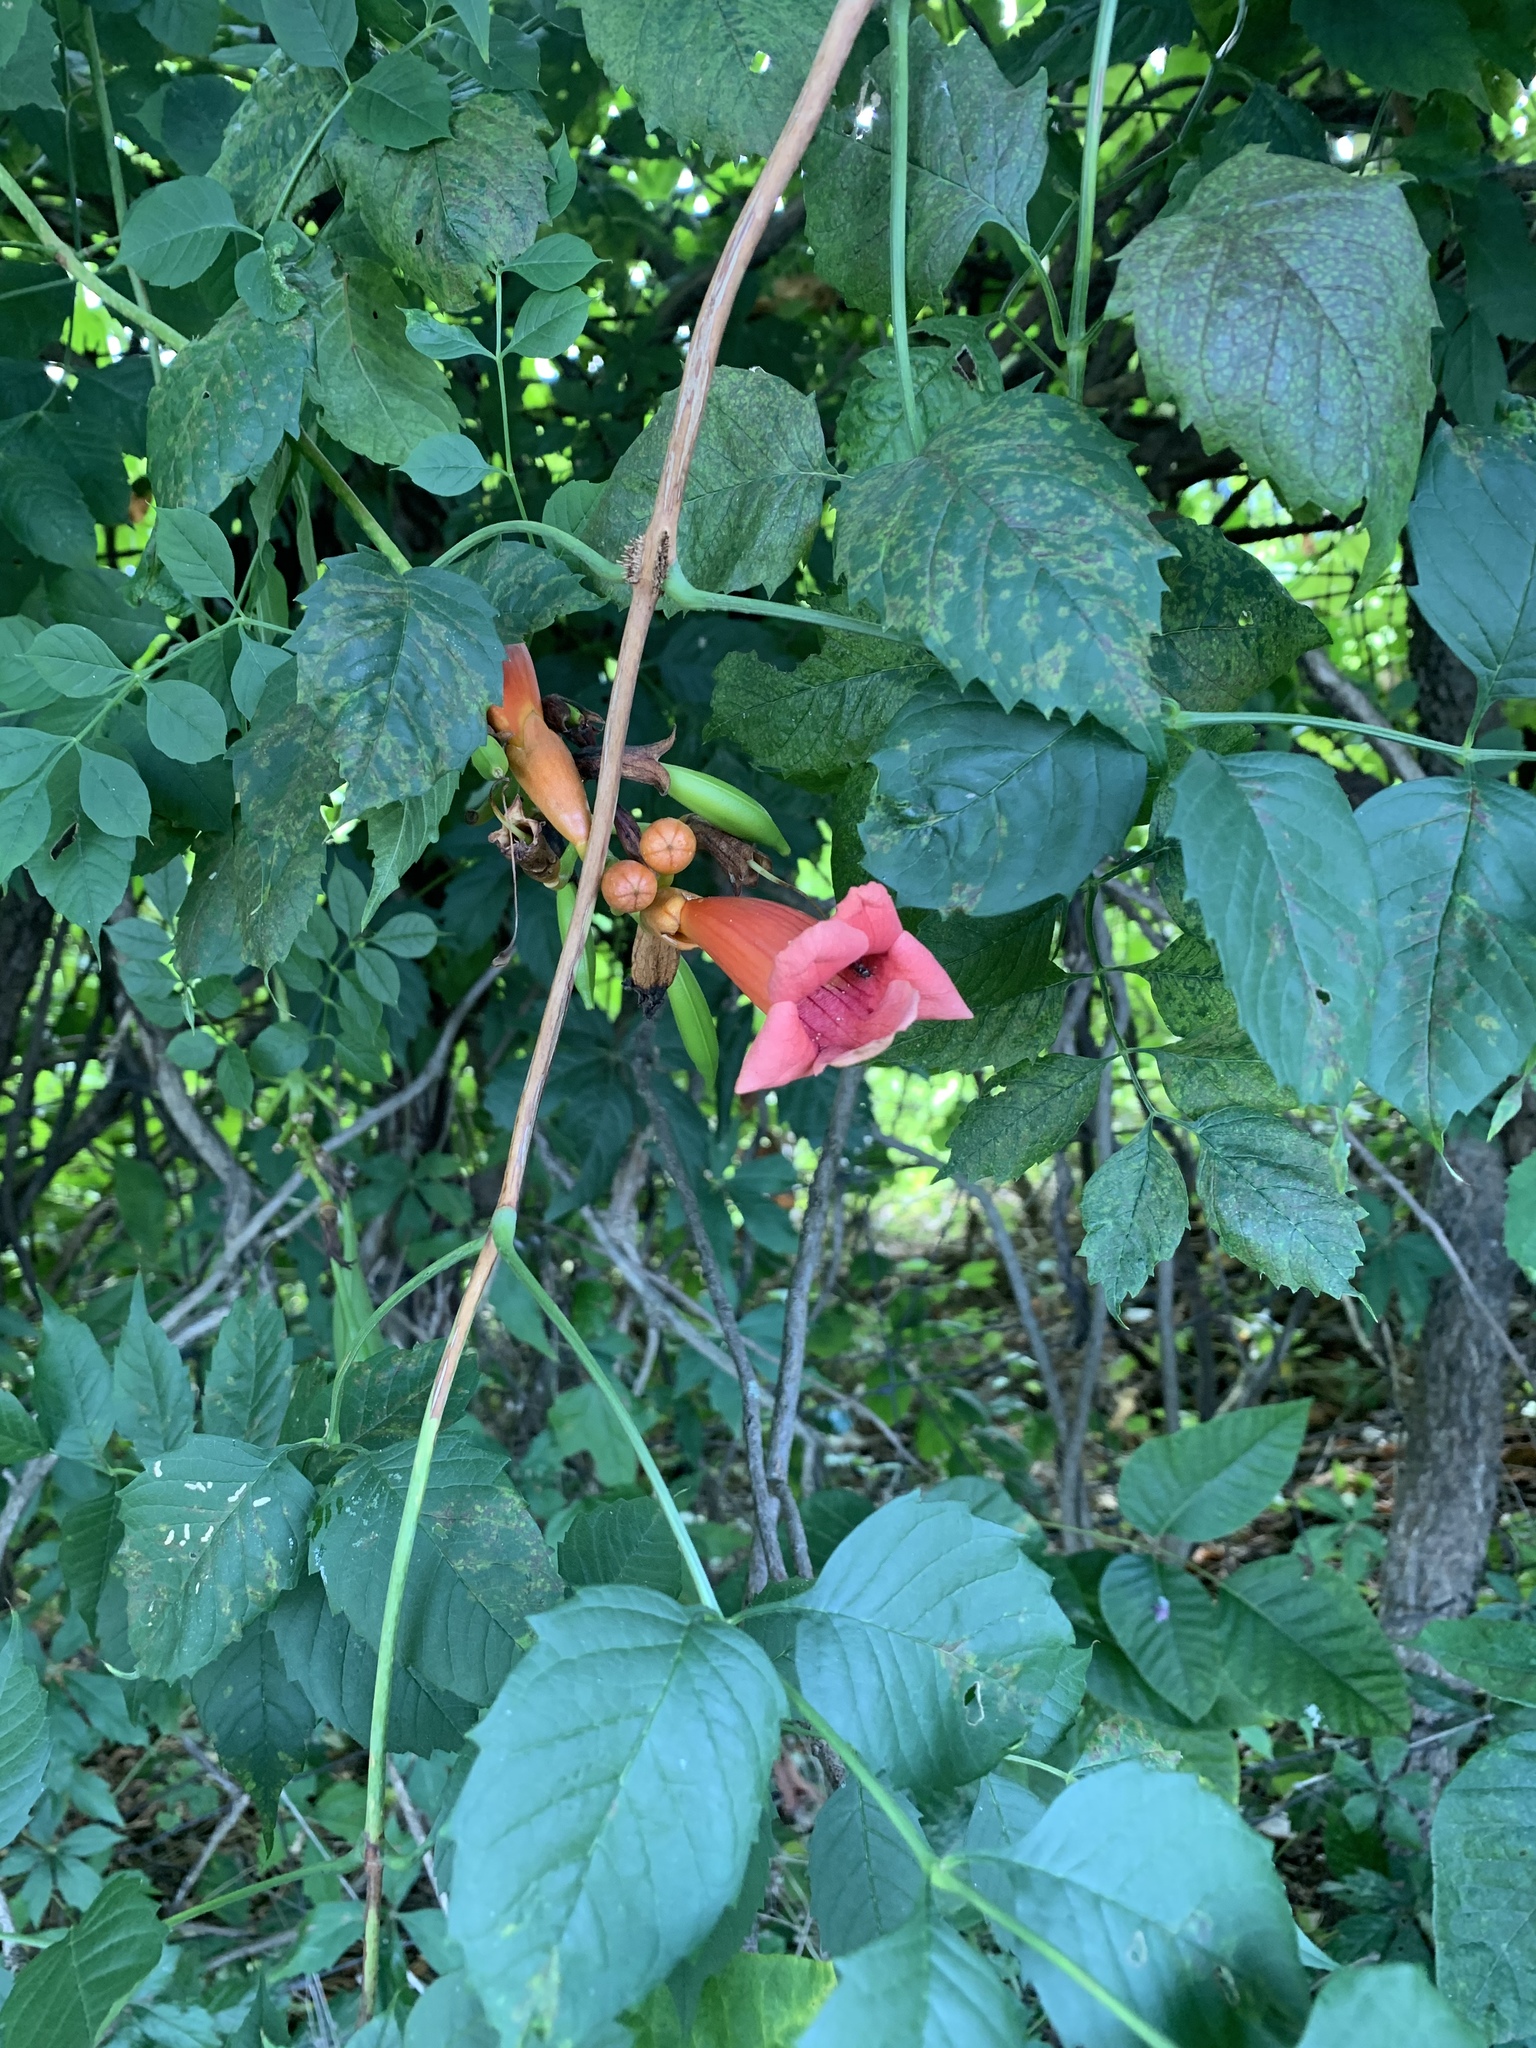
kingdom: Plantae
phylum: Tracheophyta
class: Magnoliopsida
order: Lamiales
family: Bignoniaceae
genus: Campsis
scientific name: Campsis radicans
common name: Trumpet-creeper
